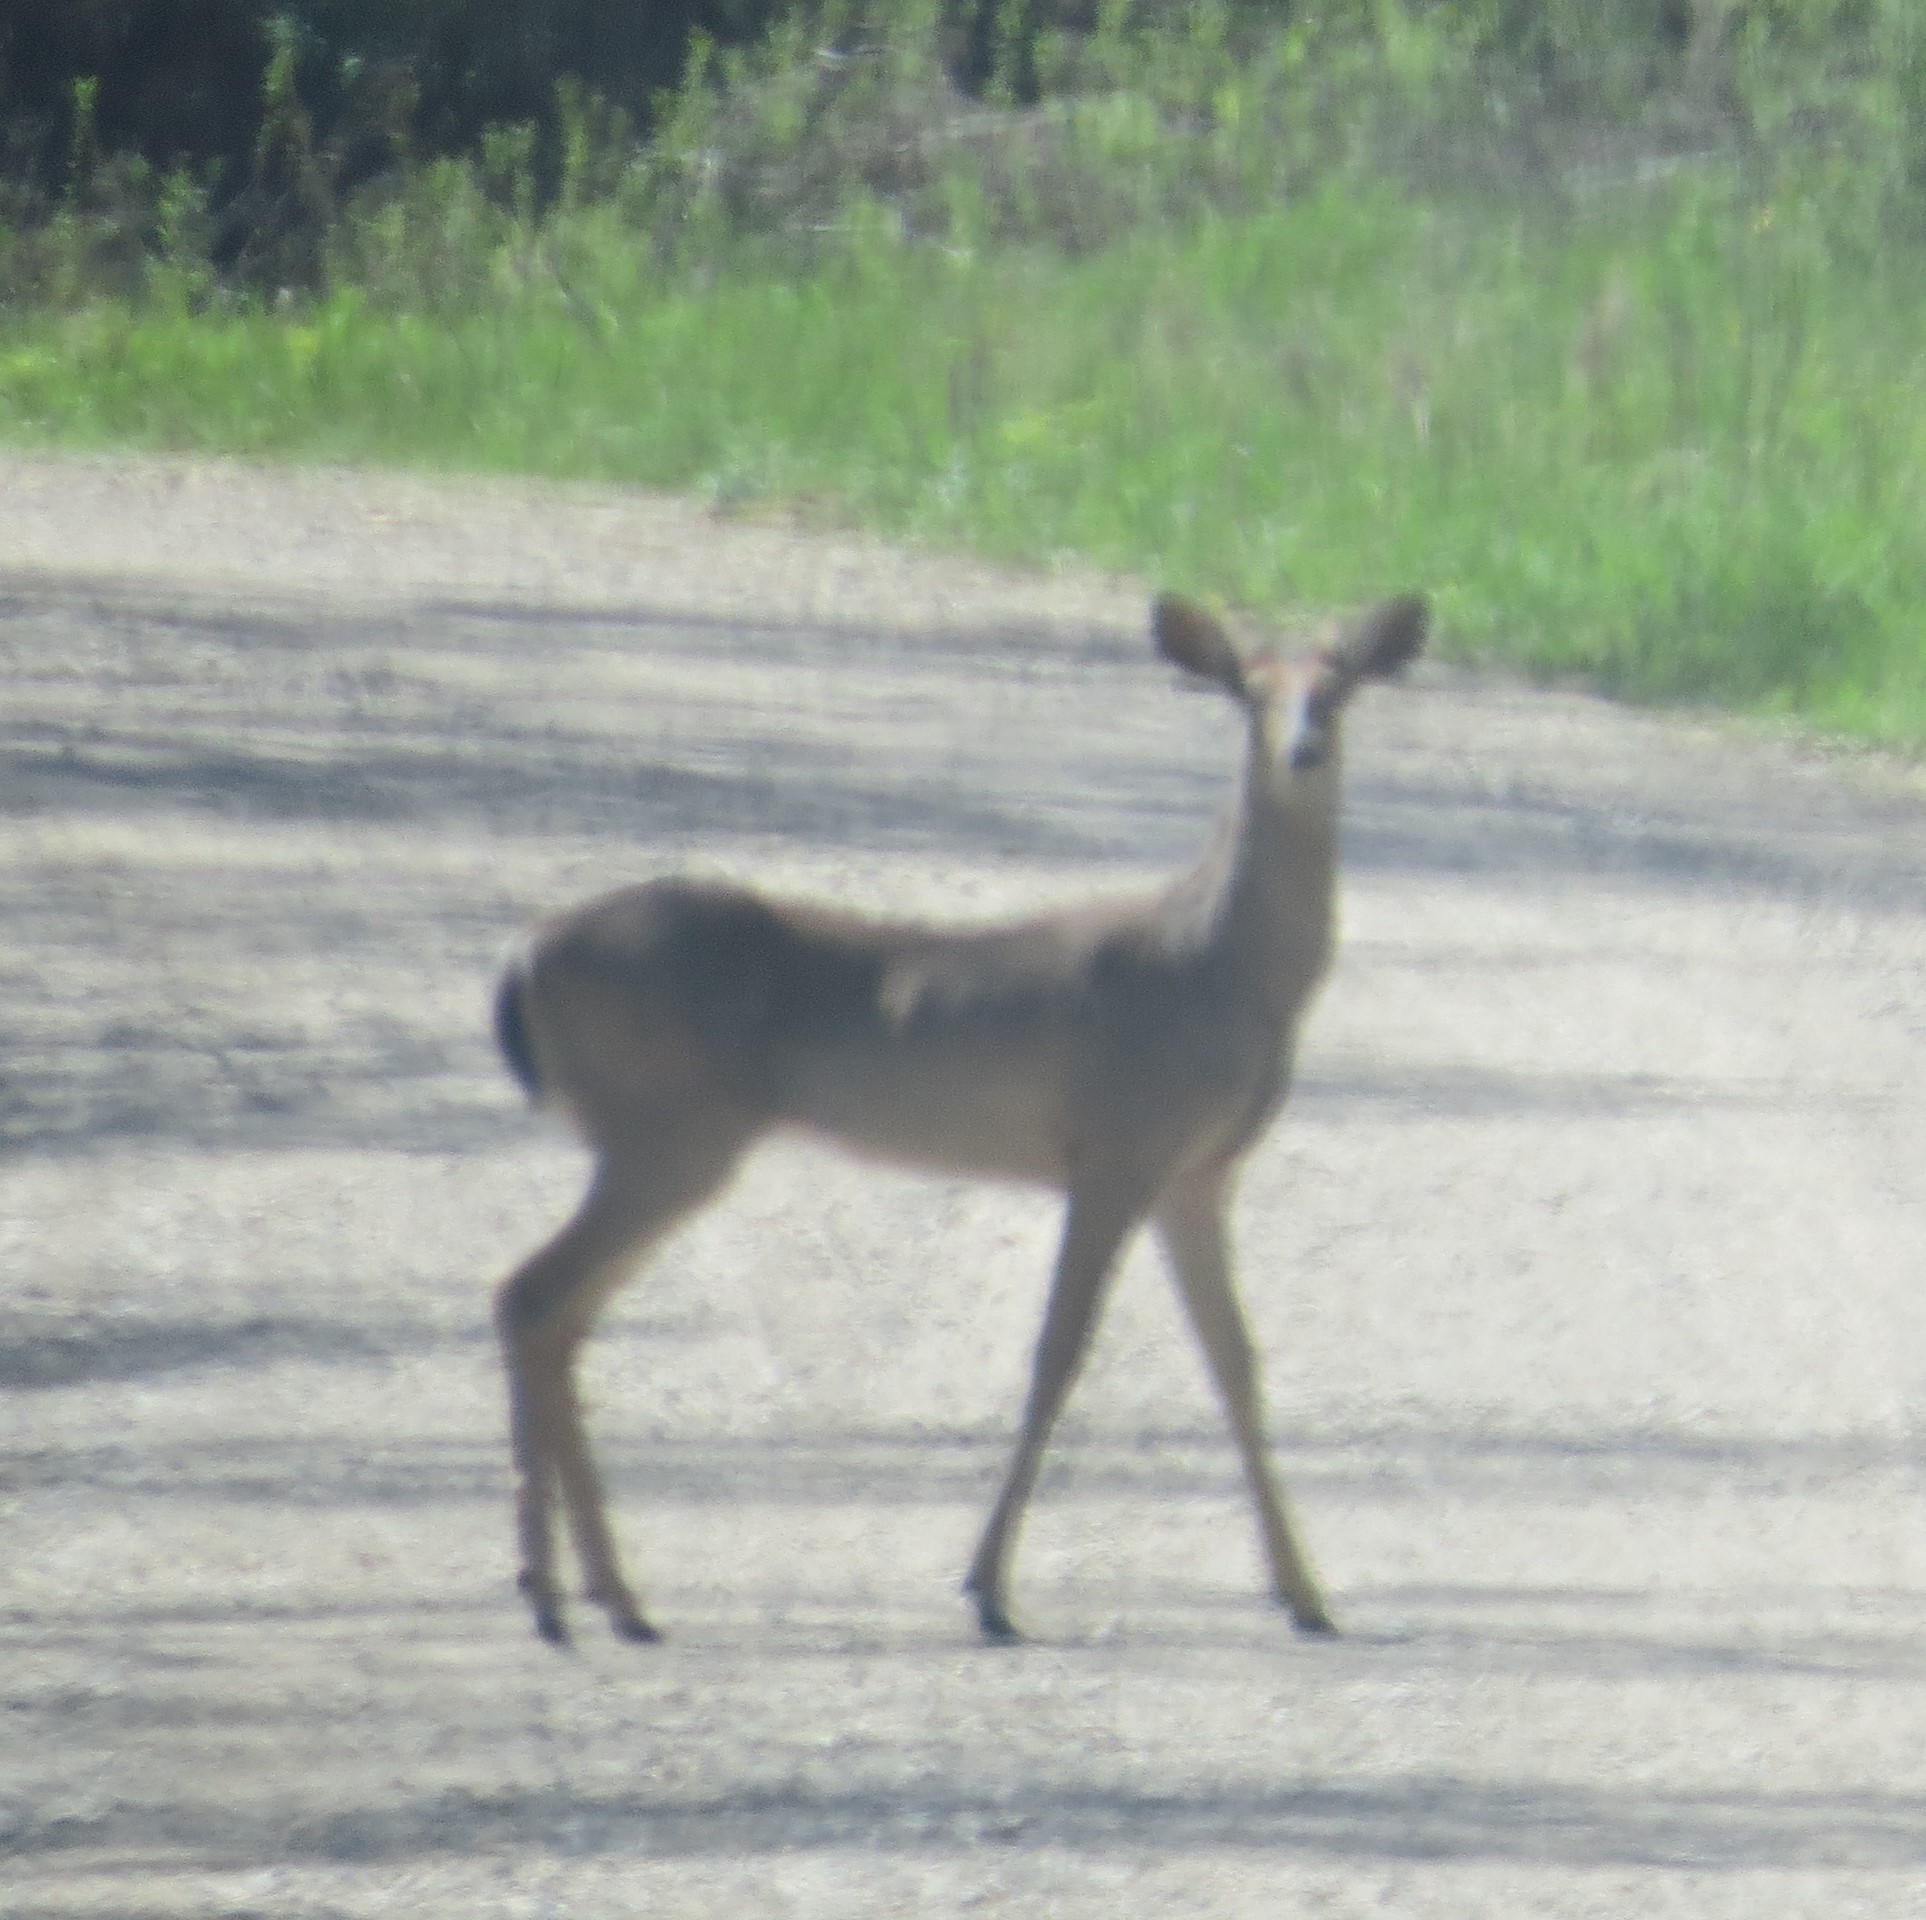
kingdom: Animalia
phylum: Chordata
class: Mammalia
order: Artiodactyla
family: Cervidae
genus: Odocoileus
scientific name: Odocoileus virginianus
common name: White-tailed deer
